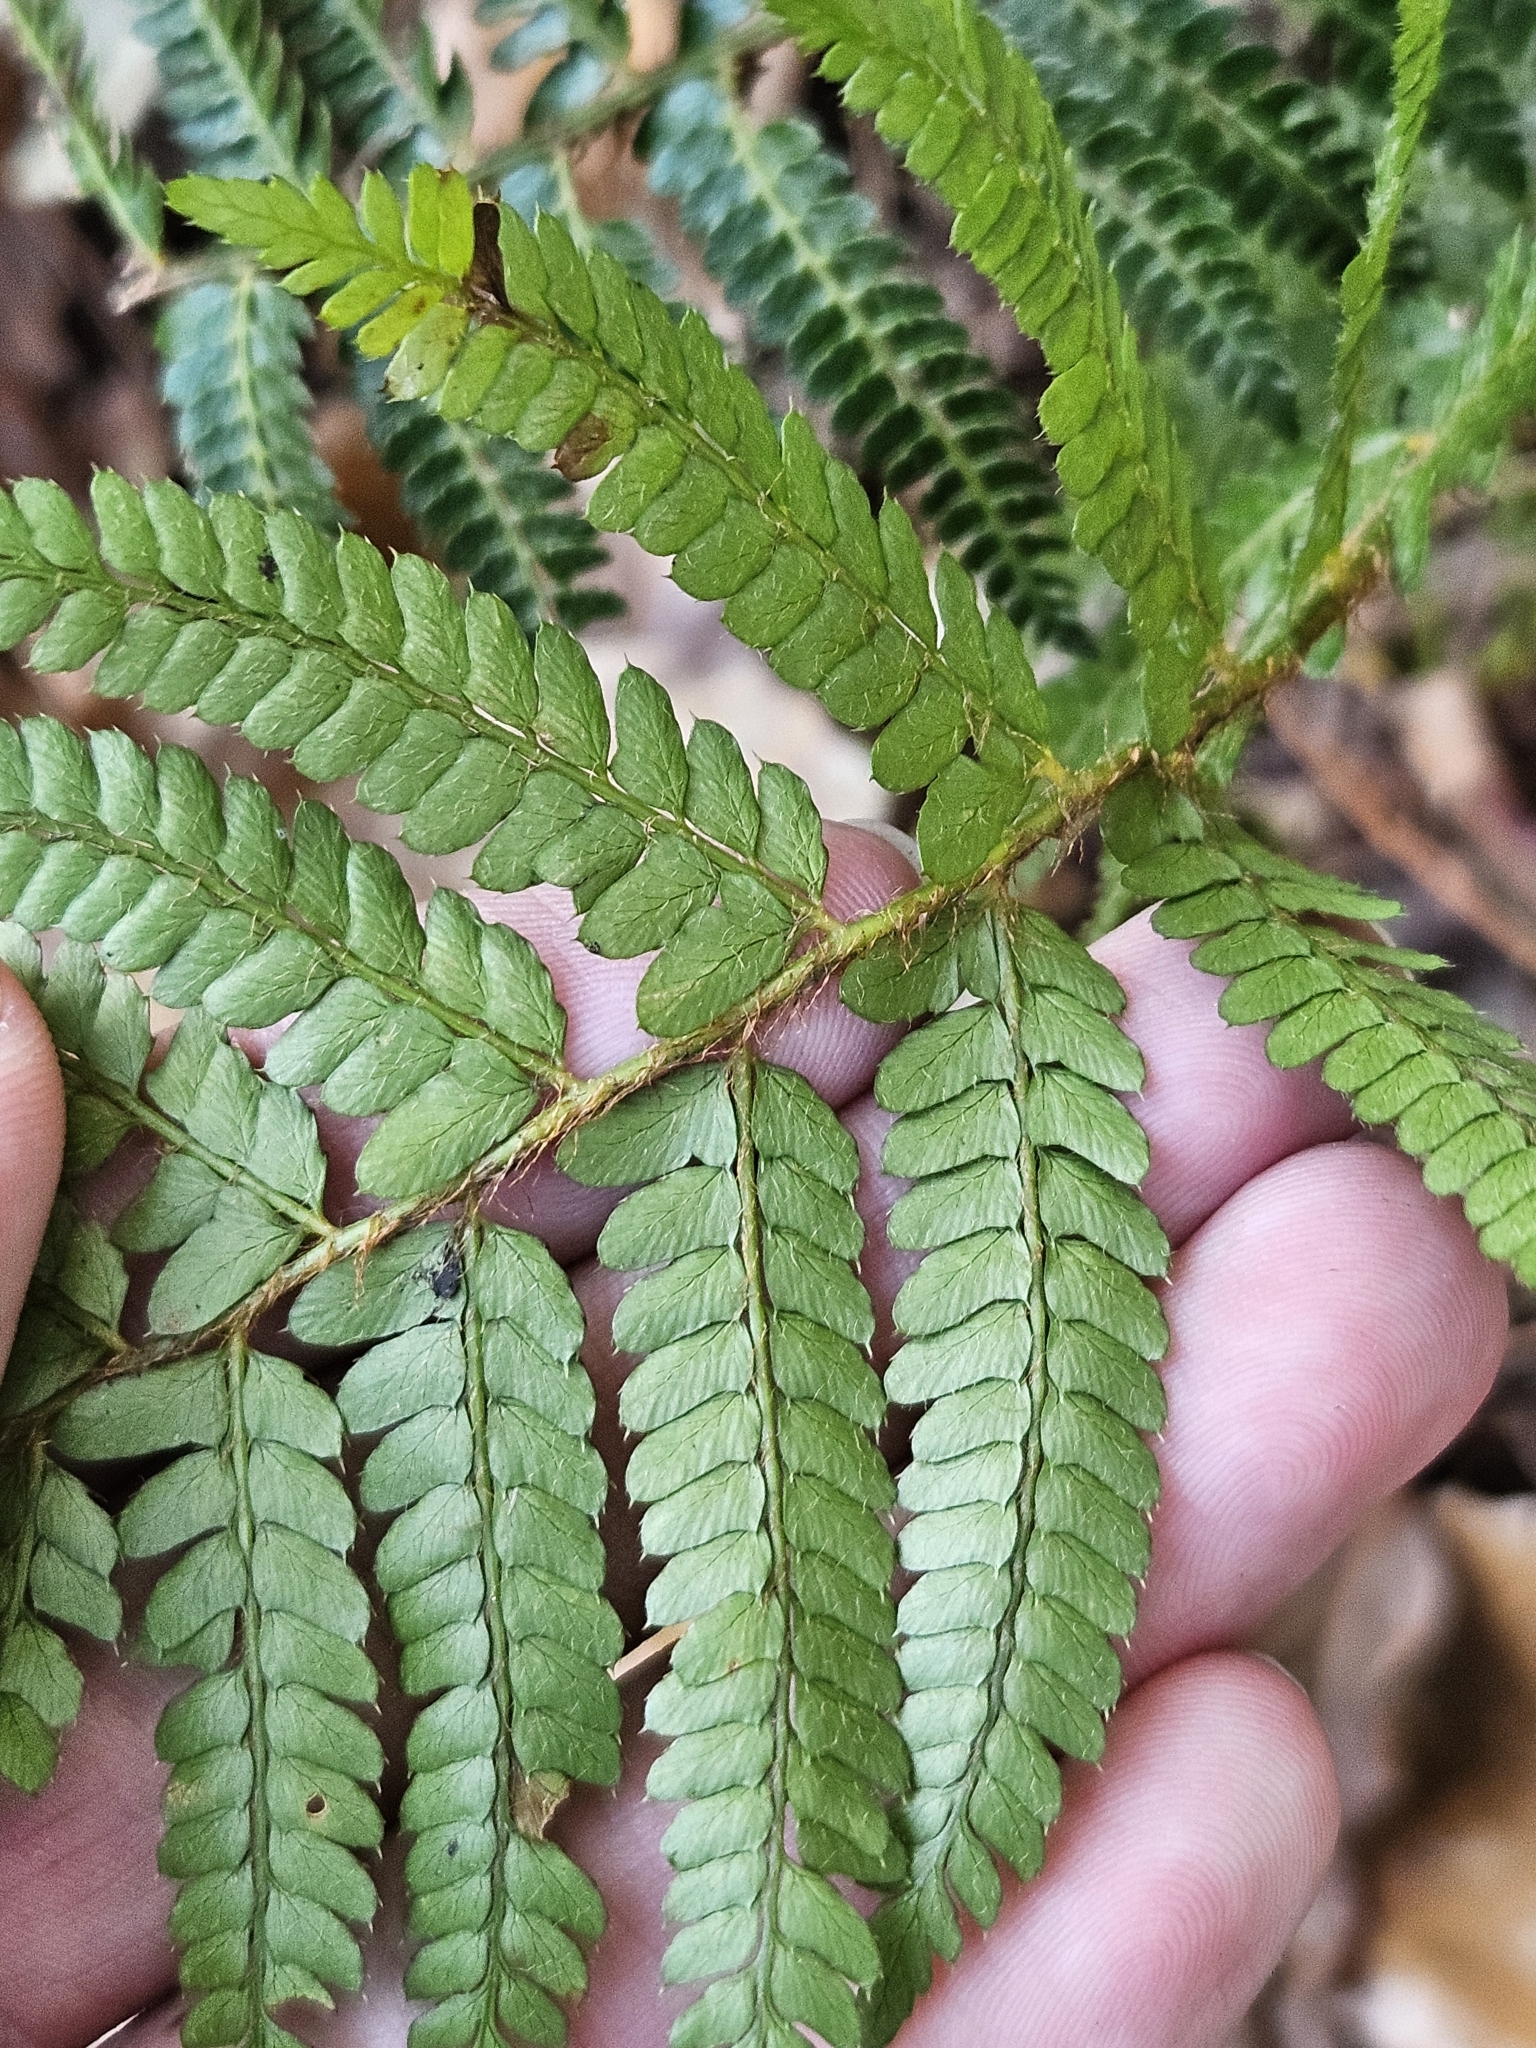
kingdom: Plantae
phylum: Tracheophyta
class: Polypodiopsida
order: Polypodiales
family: Dryopteridaceae
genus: Polystichum
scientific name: Polystichum parvipinnulum
